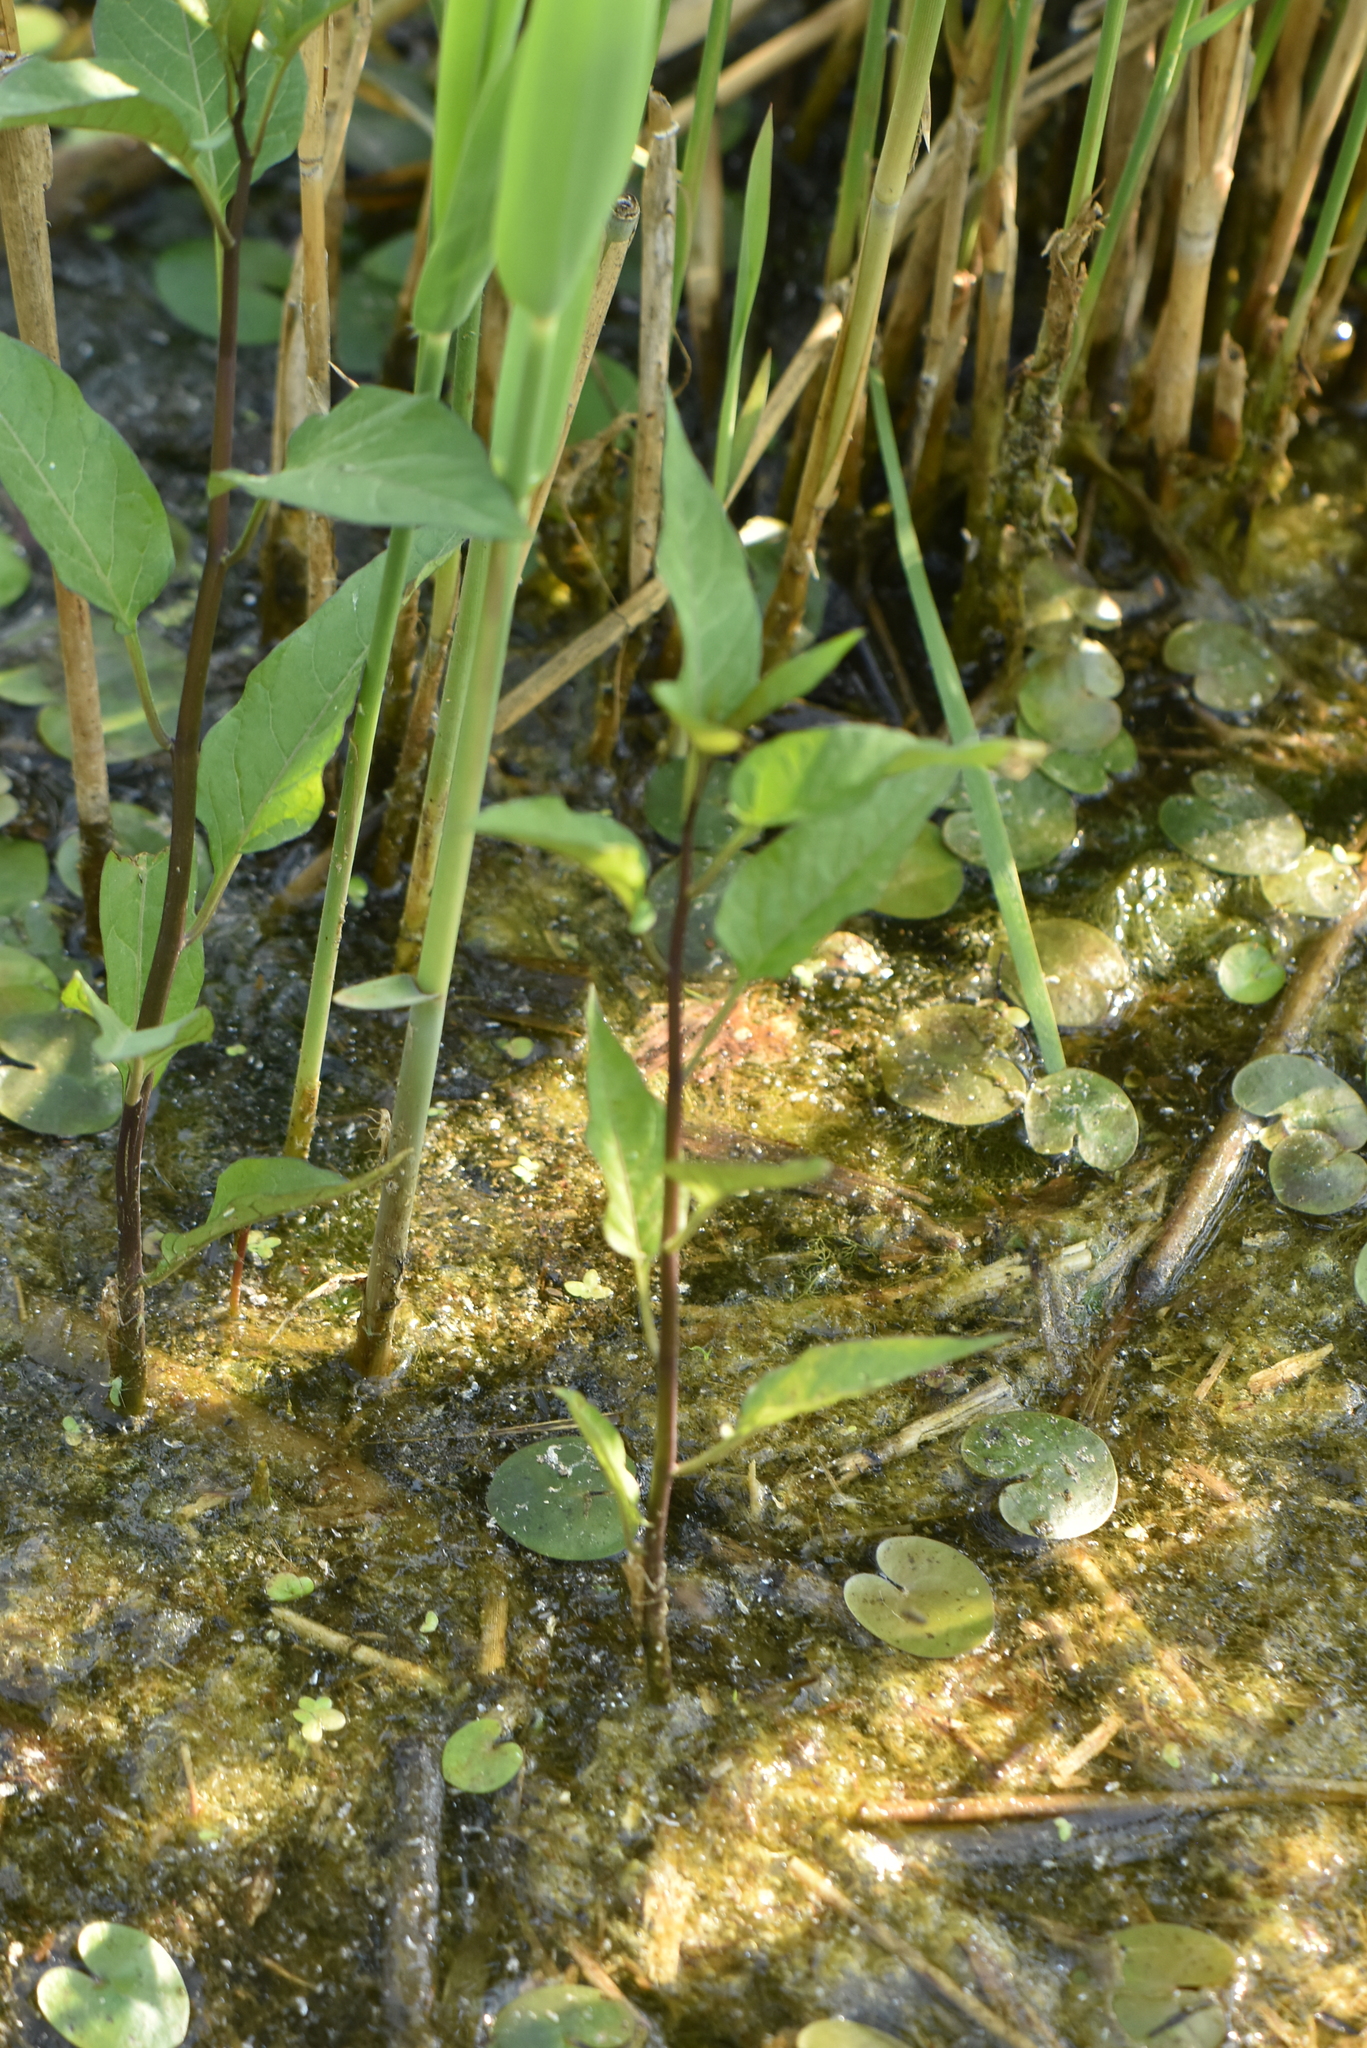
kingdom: Plantae
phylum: Tracheophyta
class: Magnoliopsida
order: Solanales
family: Solanaceae
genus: Solanum
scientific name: Solanum dulcamara
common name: Climbing nightshade
